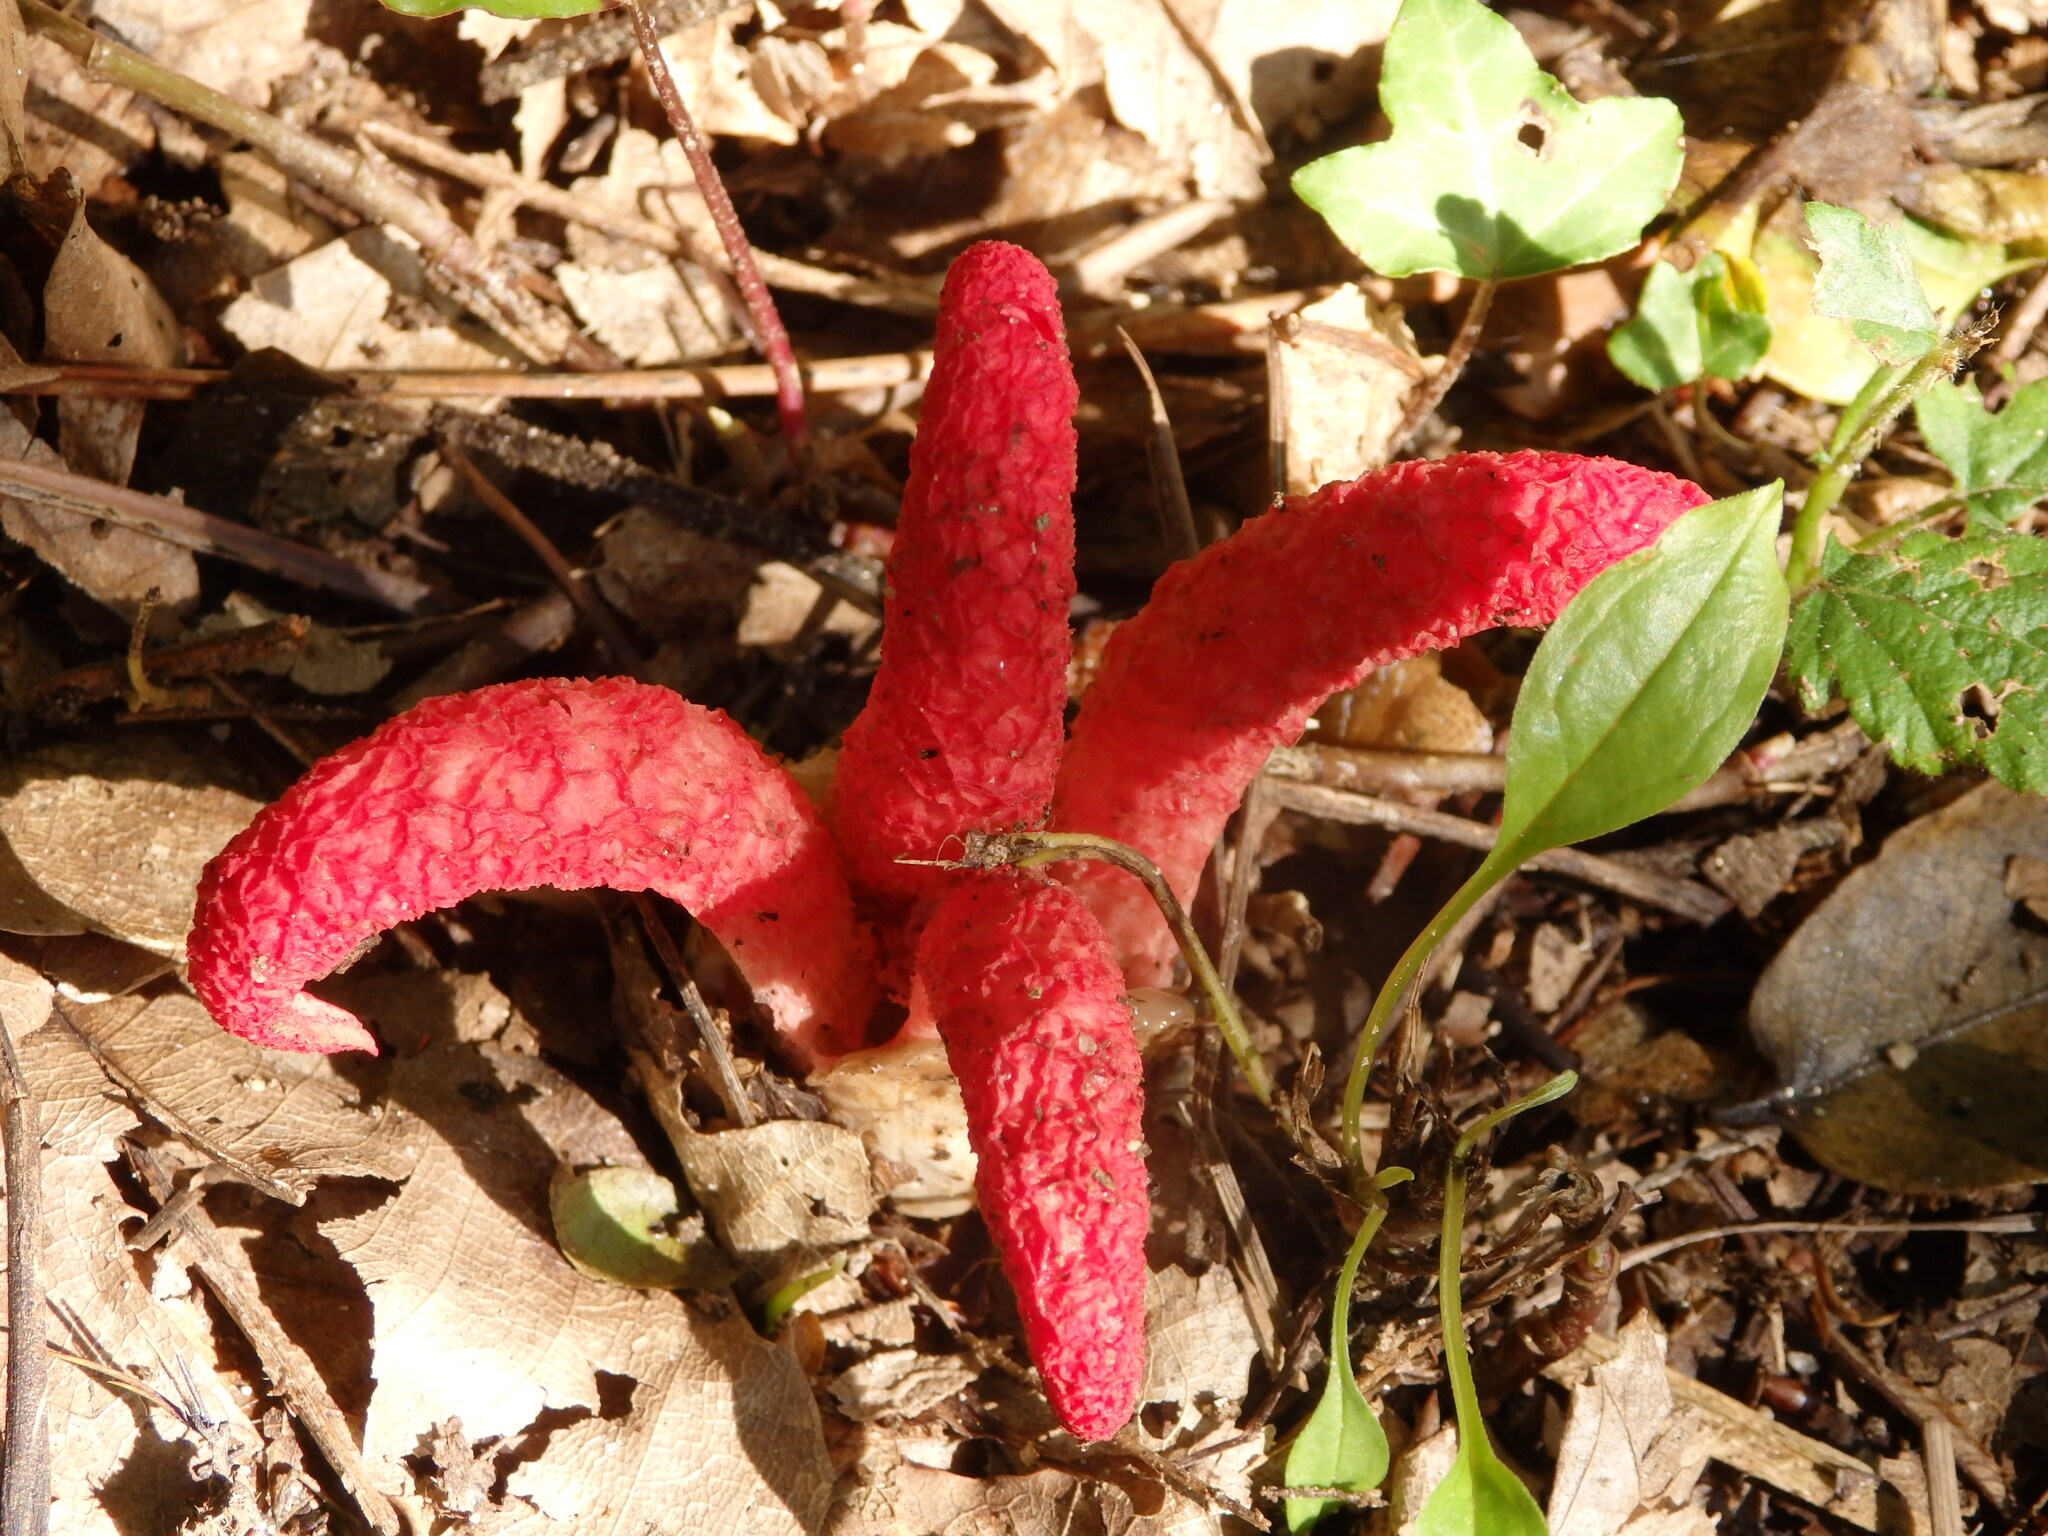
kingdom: Fungi
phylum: Basidiomycota
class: Agaricomycetes
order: Phallales
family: Phallaceae
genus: Clathrus
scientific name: Clathrus archeri
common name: Devil's fingers
